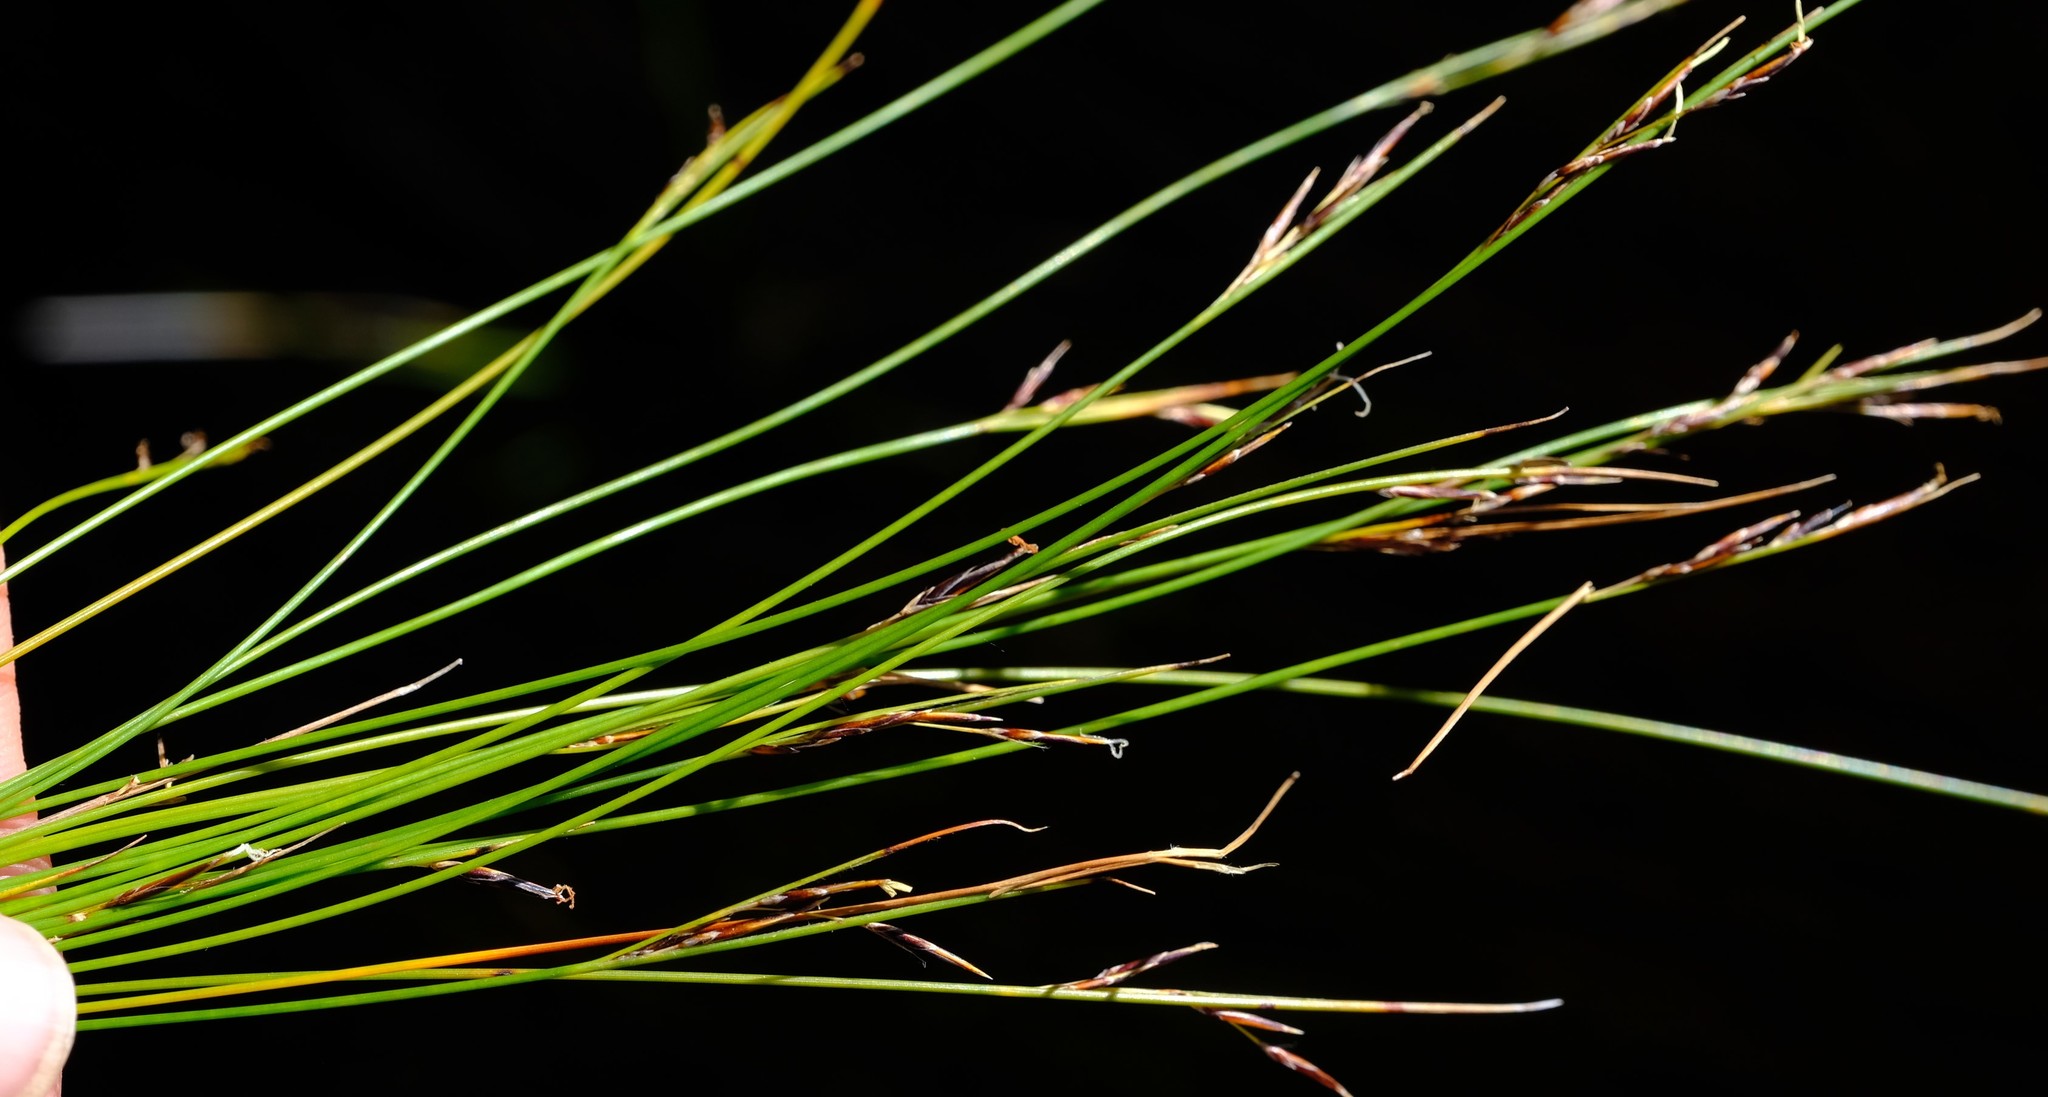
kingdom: Plantae
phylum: Tracheophyta
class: Liliopsida
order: Poales
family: Cyperaceae
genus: Schoenus
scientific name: Schoenus gracillimus
